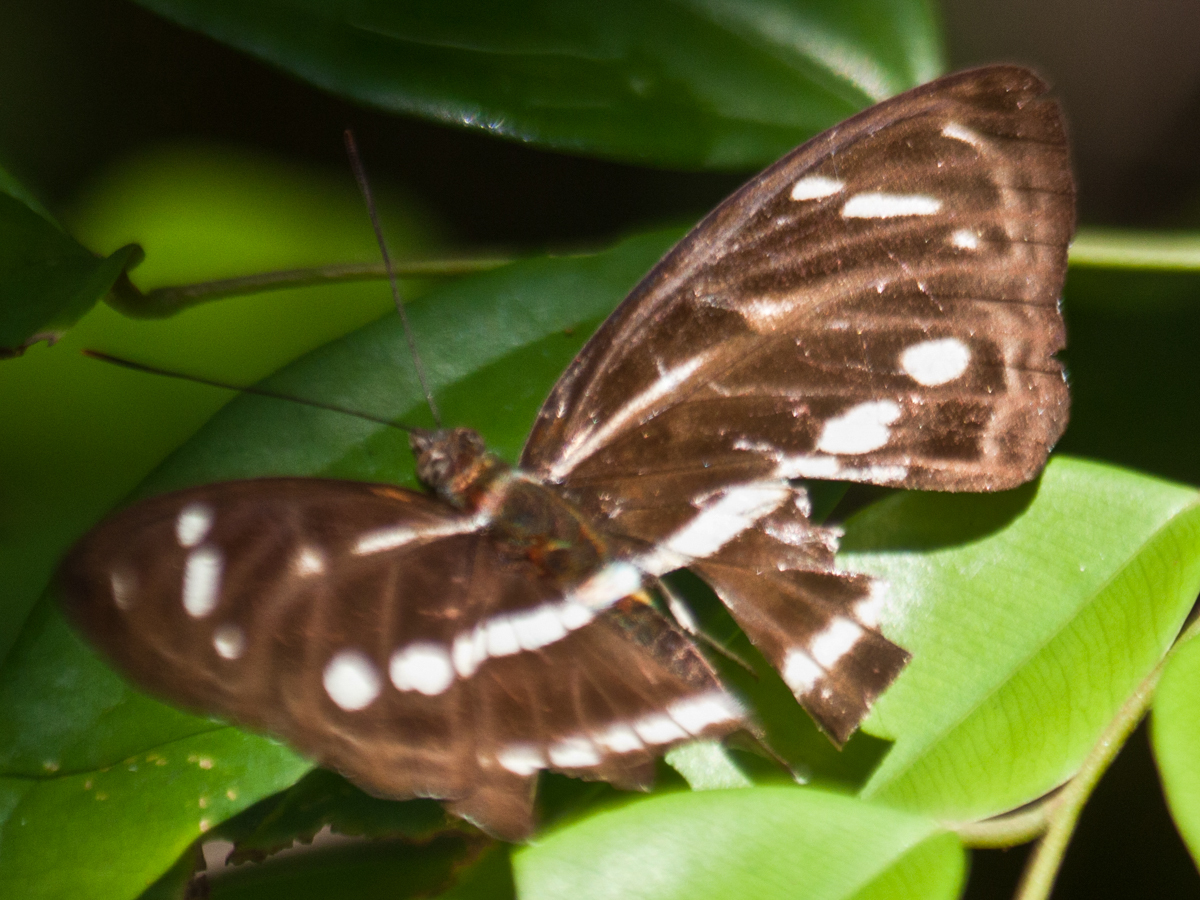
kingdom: Animalia
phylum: Arthropoda
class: Insecta
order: Lepidoptera
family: Nymphalidae
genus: Parathyma
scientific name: Parathyma kanwa
